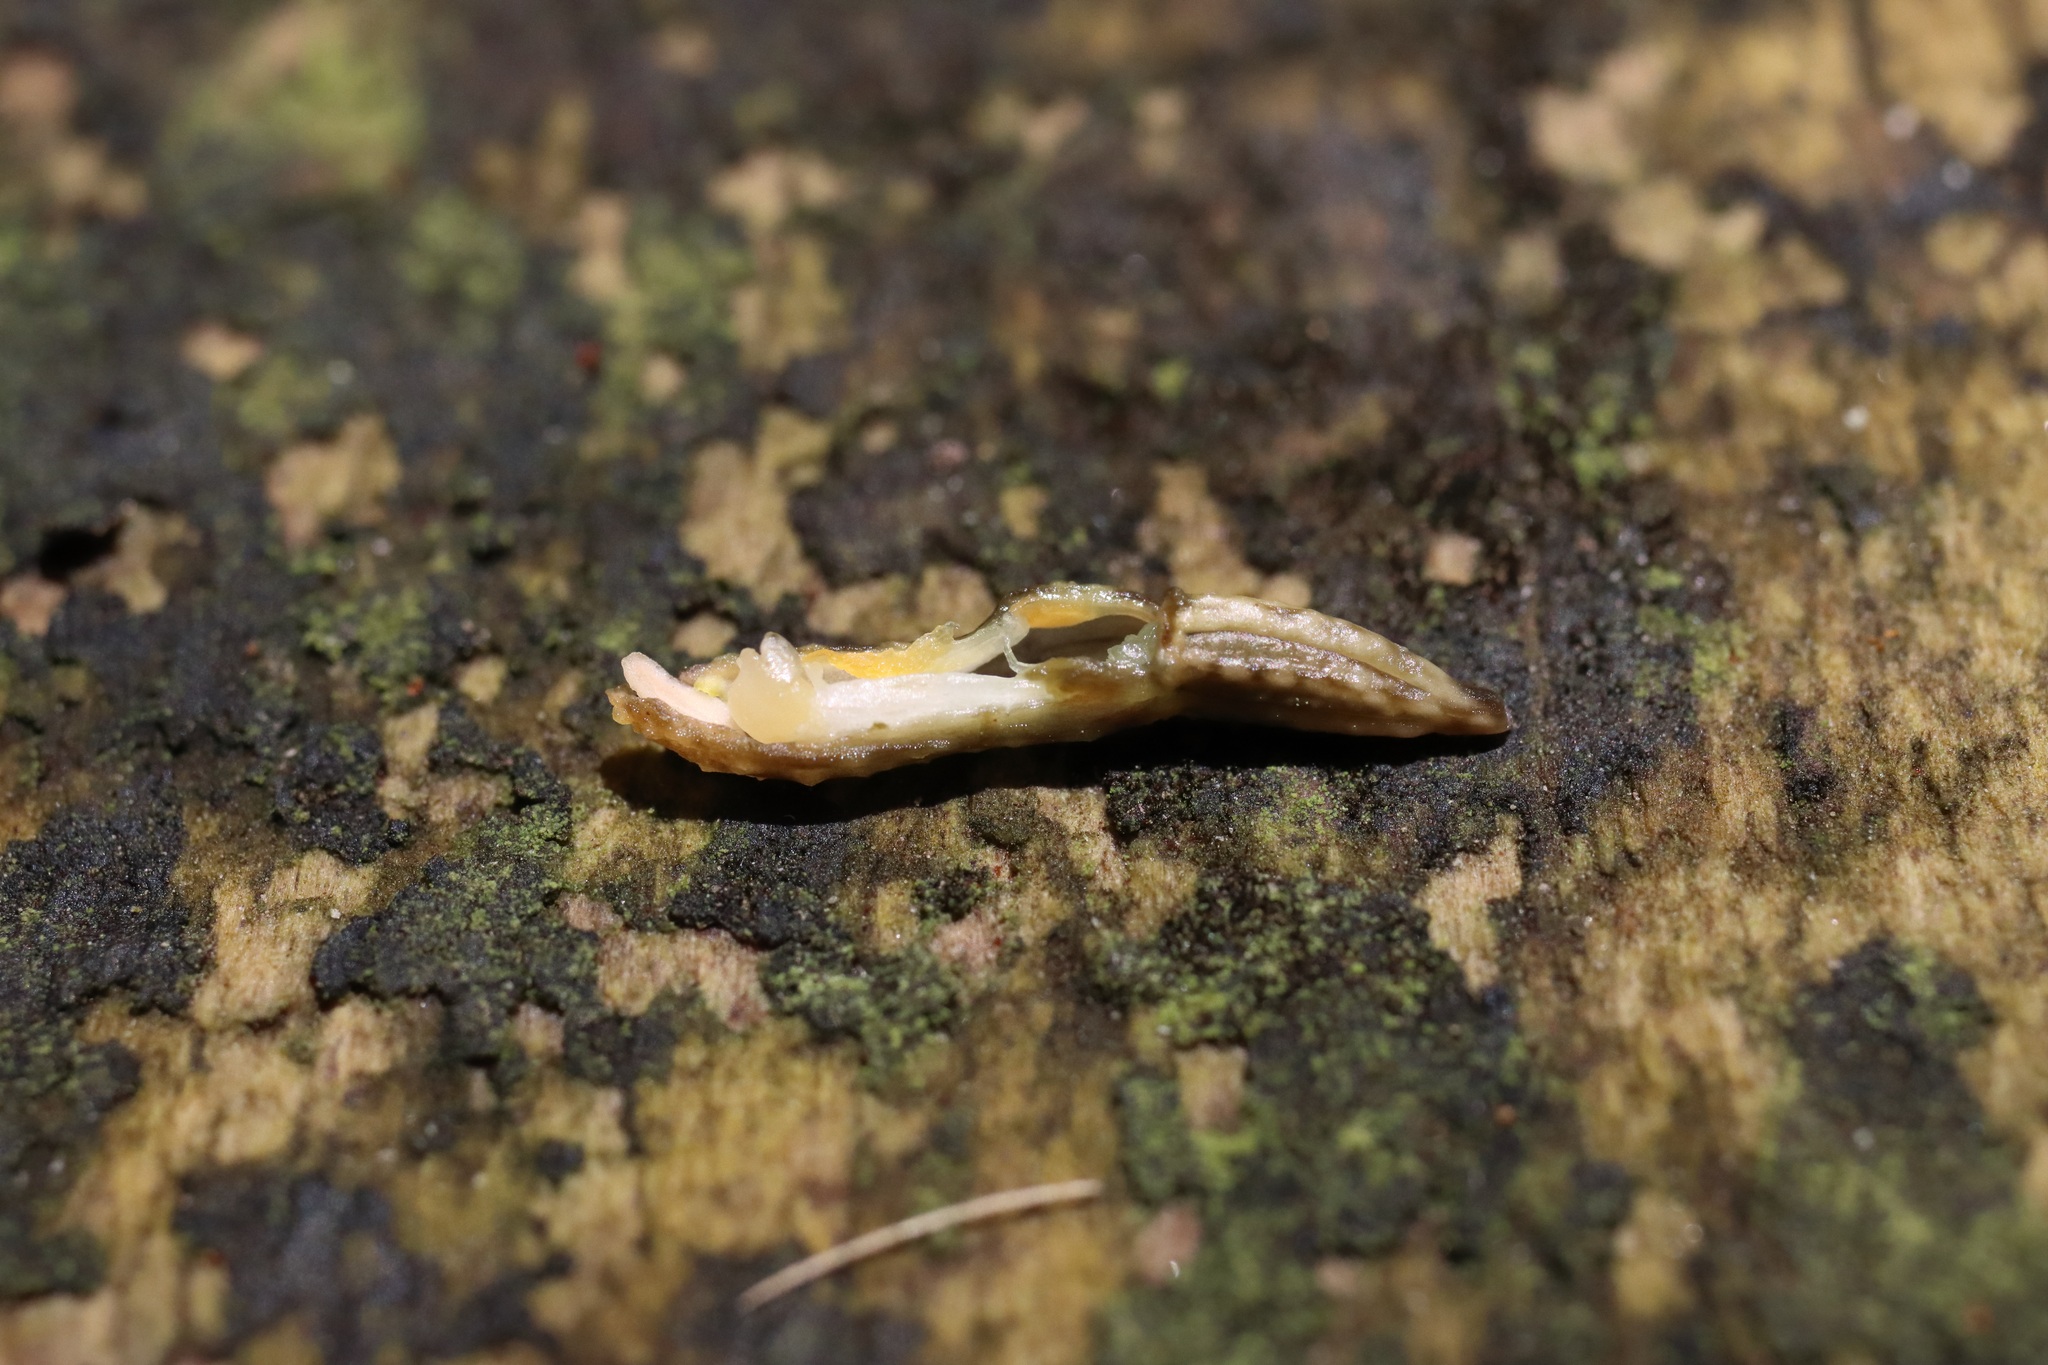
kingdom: Plantae
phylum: Tracheophyta
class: Liliopsida
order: Asparagales
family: Orchidaceae
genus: Gastrodia
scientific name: Gastrodia molloyi
